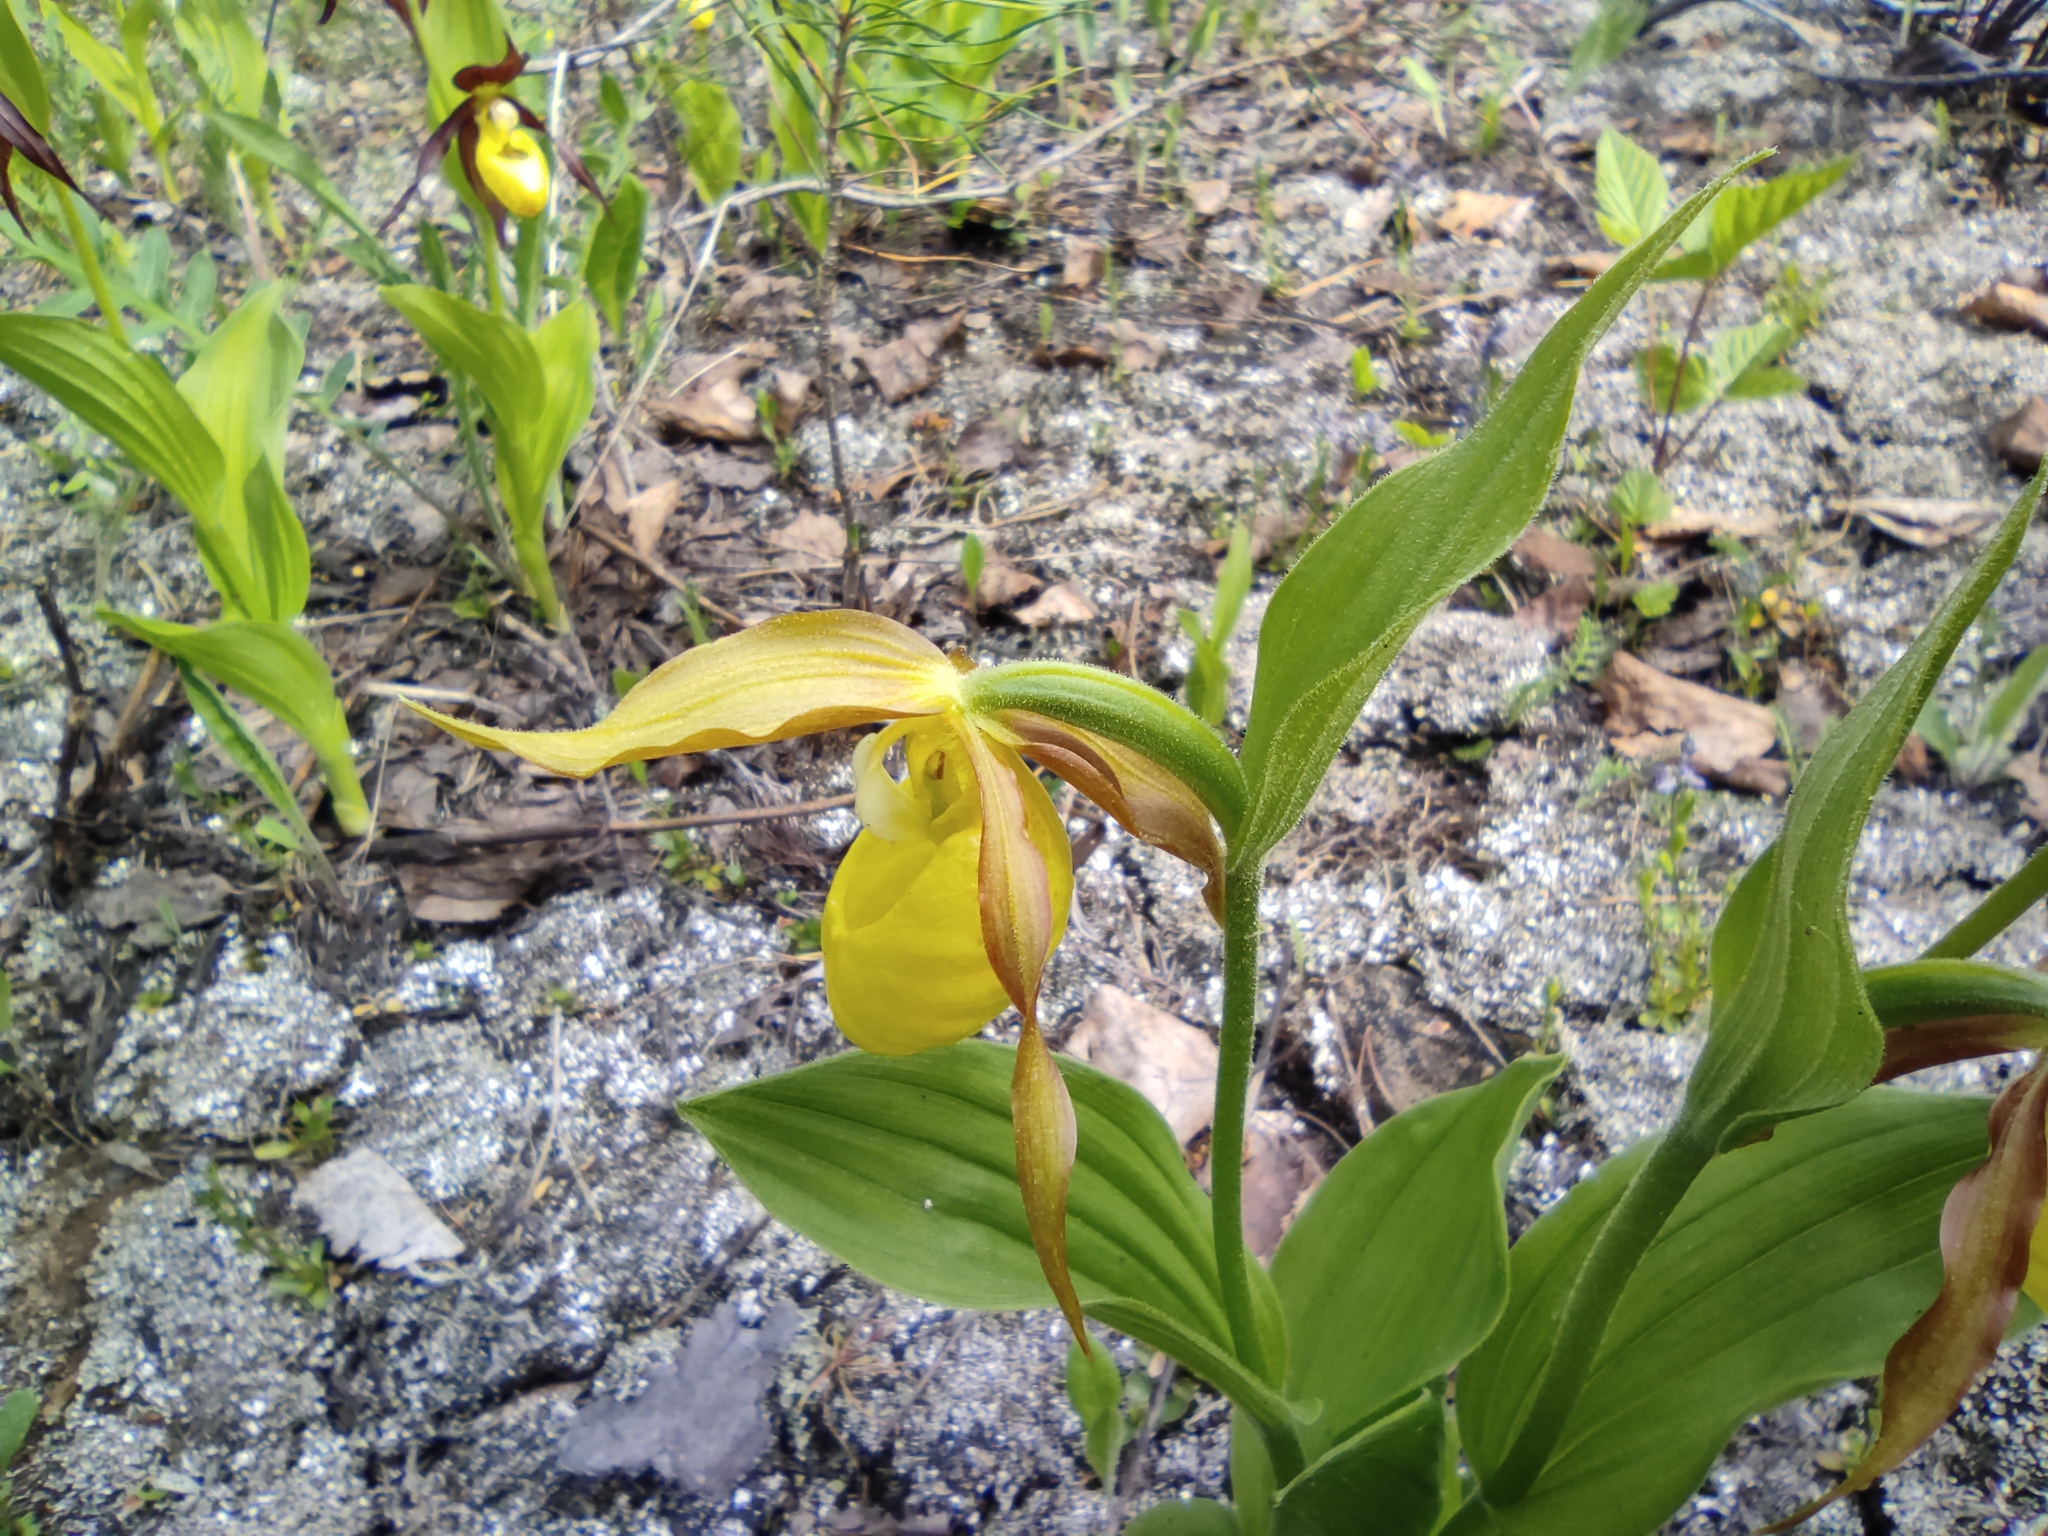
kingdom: Plantae
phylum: Tracheophyta
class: Liliopsida
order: Asparagales
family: Orchidaceae
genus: Cypripedium
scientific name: Cypripedium calceolus
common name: Lady's-slipper
